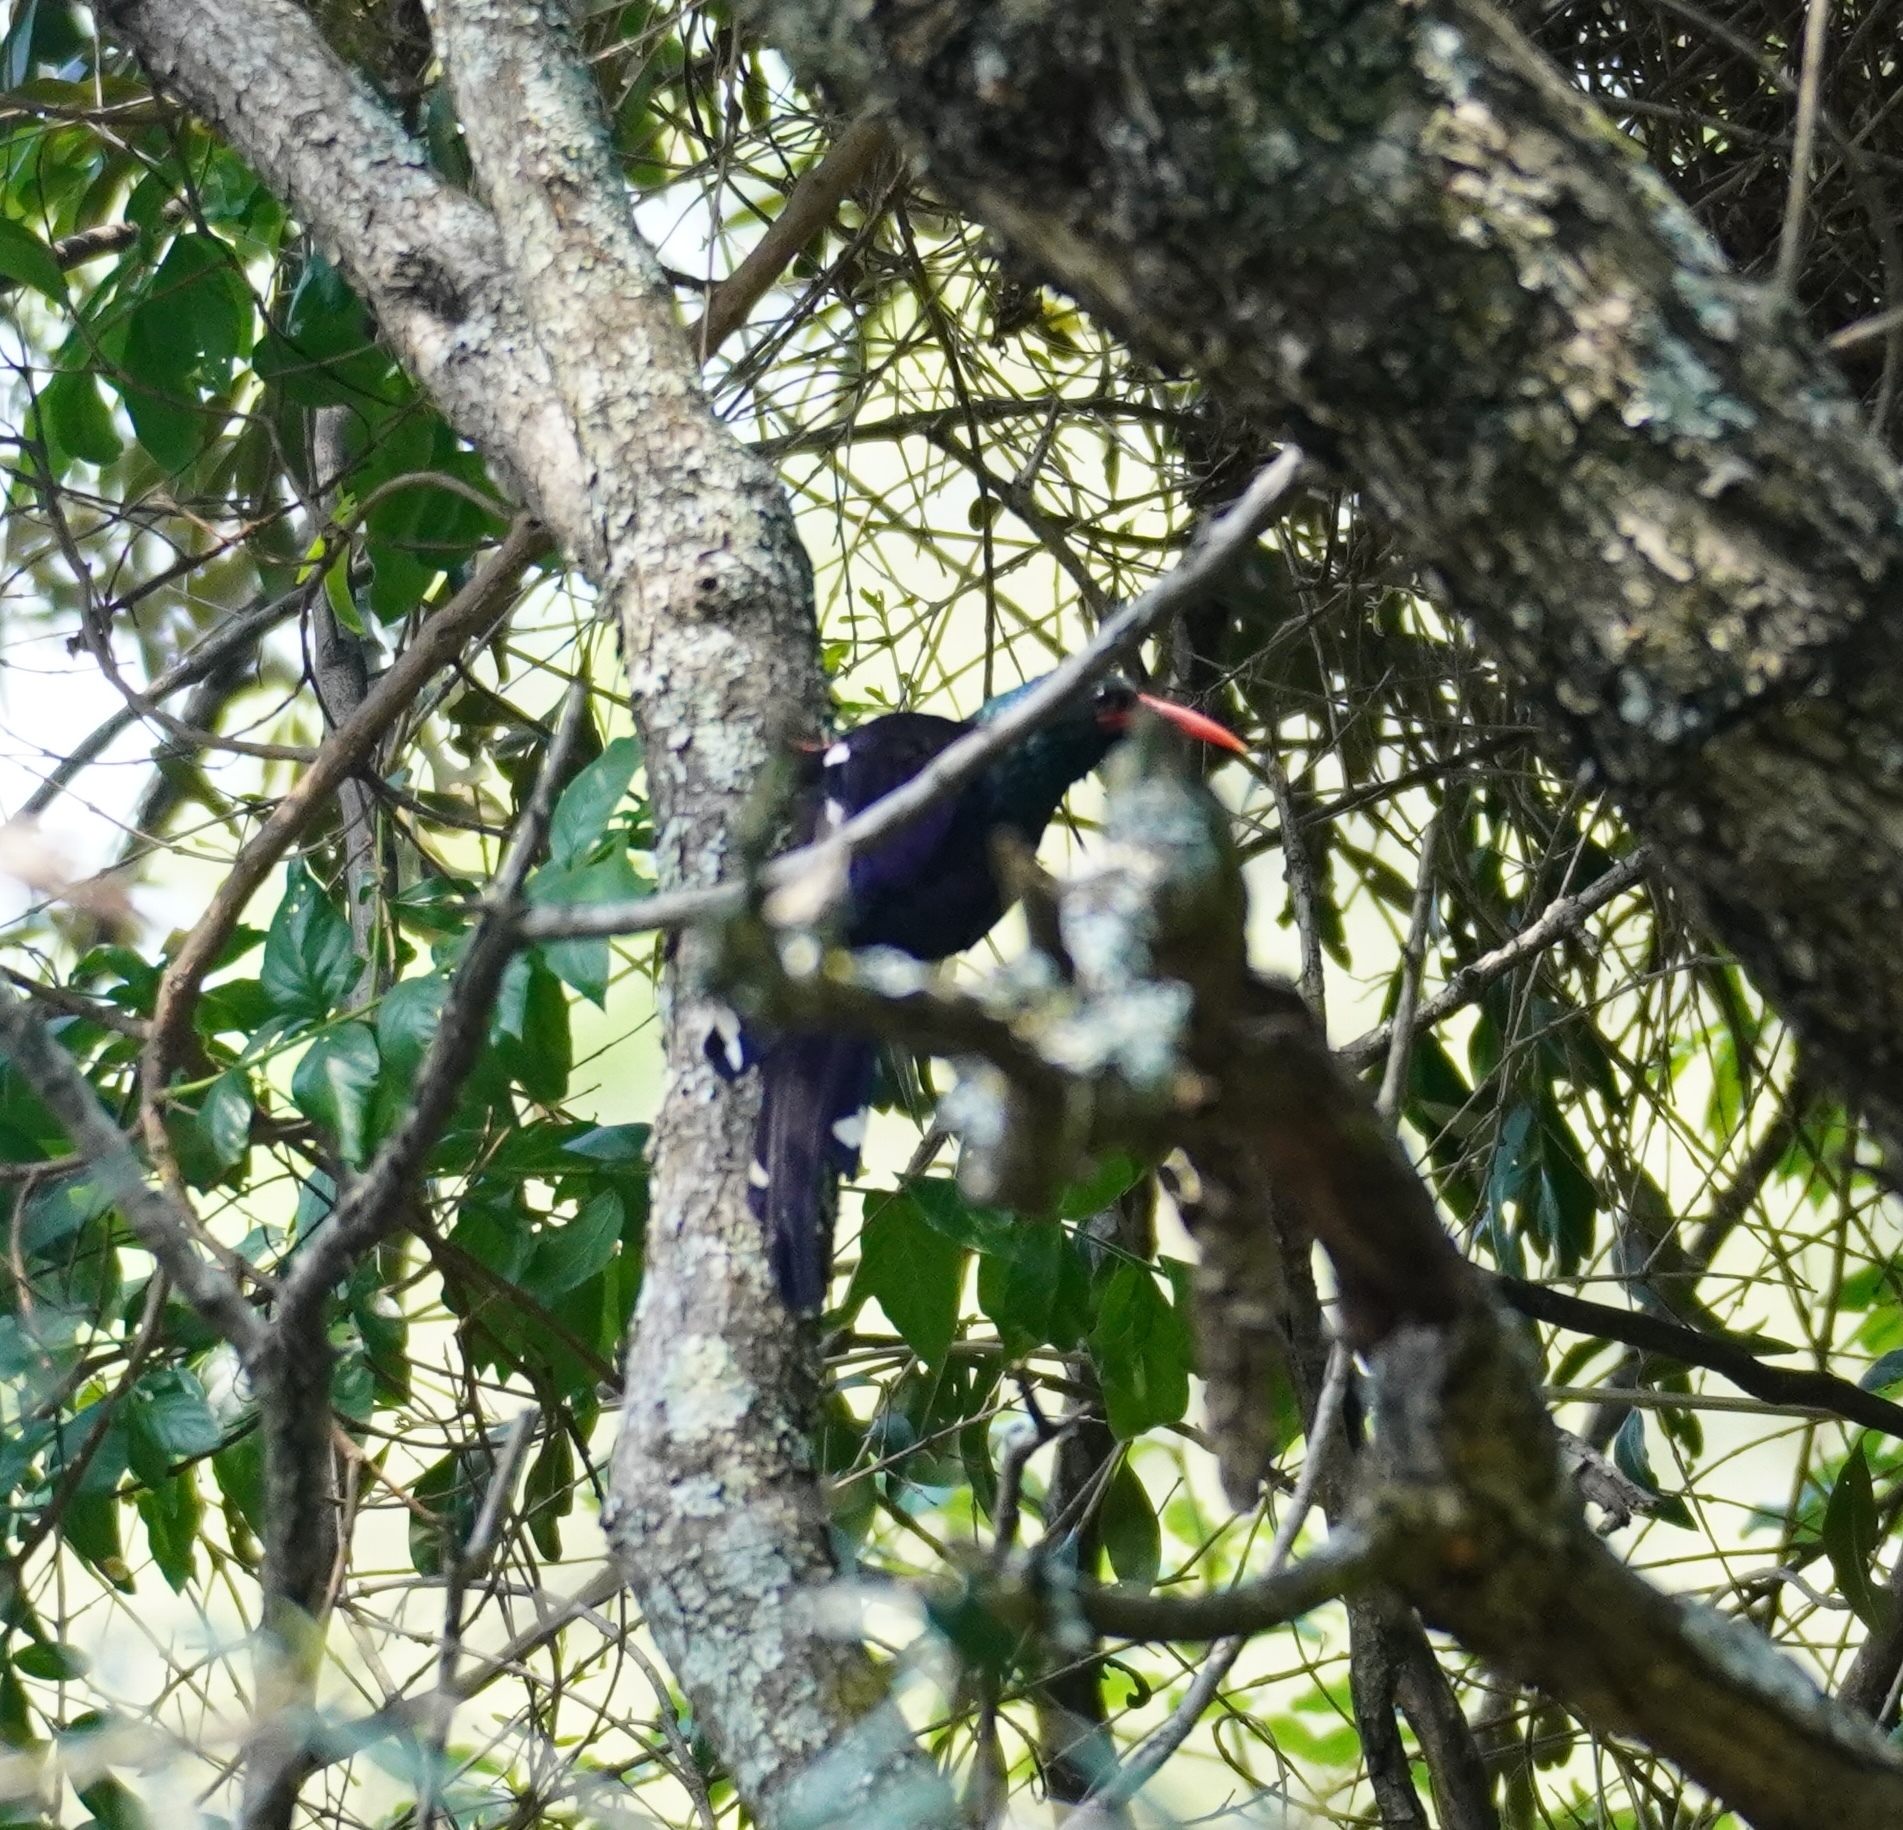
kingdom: Animalia
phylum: Chordata
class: Aves
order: Bucerotiformes
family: Phoeniculidae
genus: Phoeniculus
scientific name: Phoeniculus purpureus
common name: Green woodhoopoe
